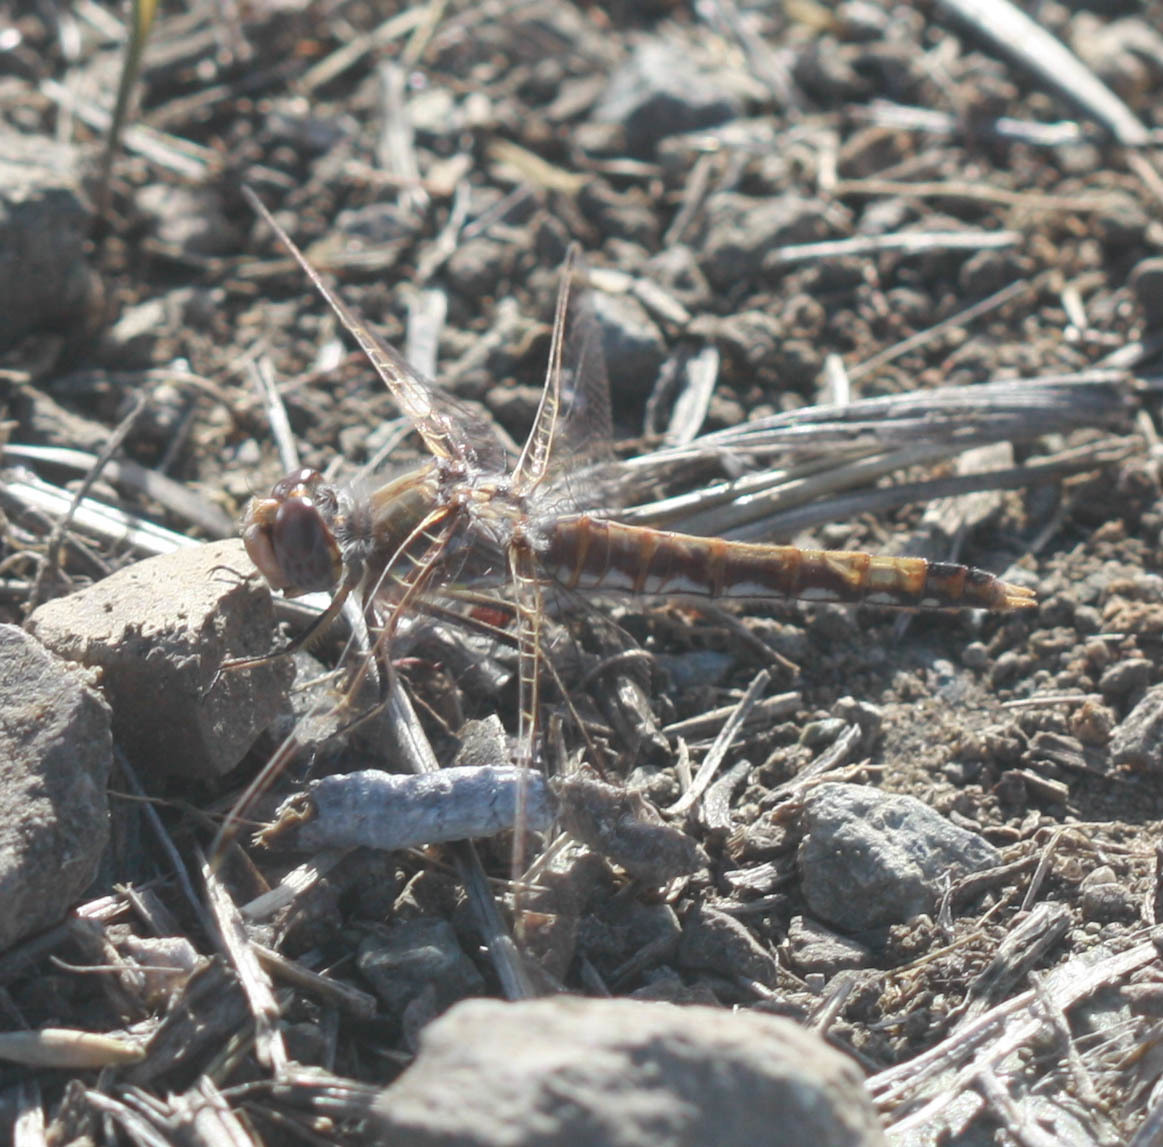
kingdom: Animalia
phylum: Arthropoda
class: Insecta
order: Odonata
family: Libellulidae
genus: Sympetrum
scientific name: Sympetrum corruptum
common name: Variegated meadowhawk
